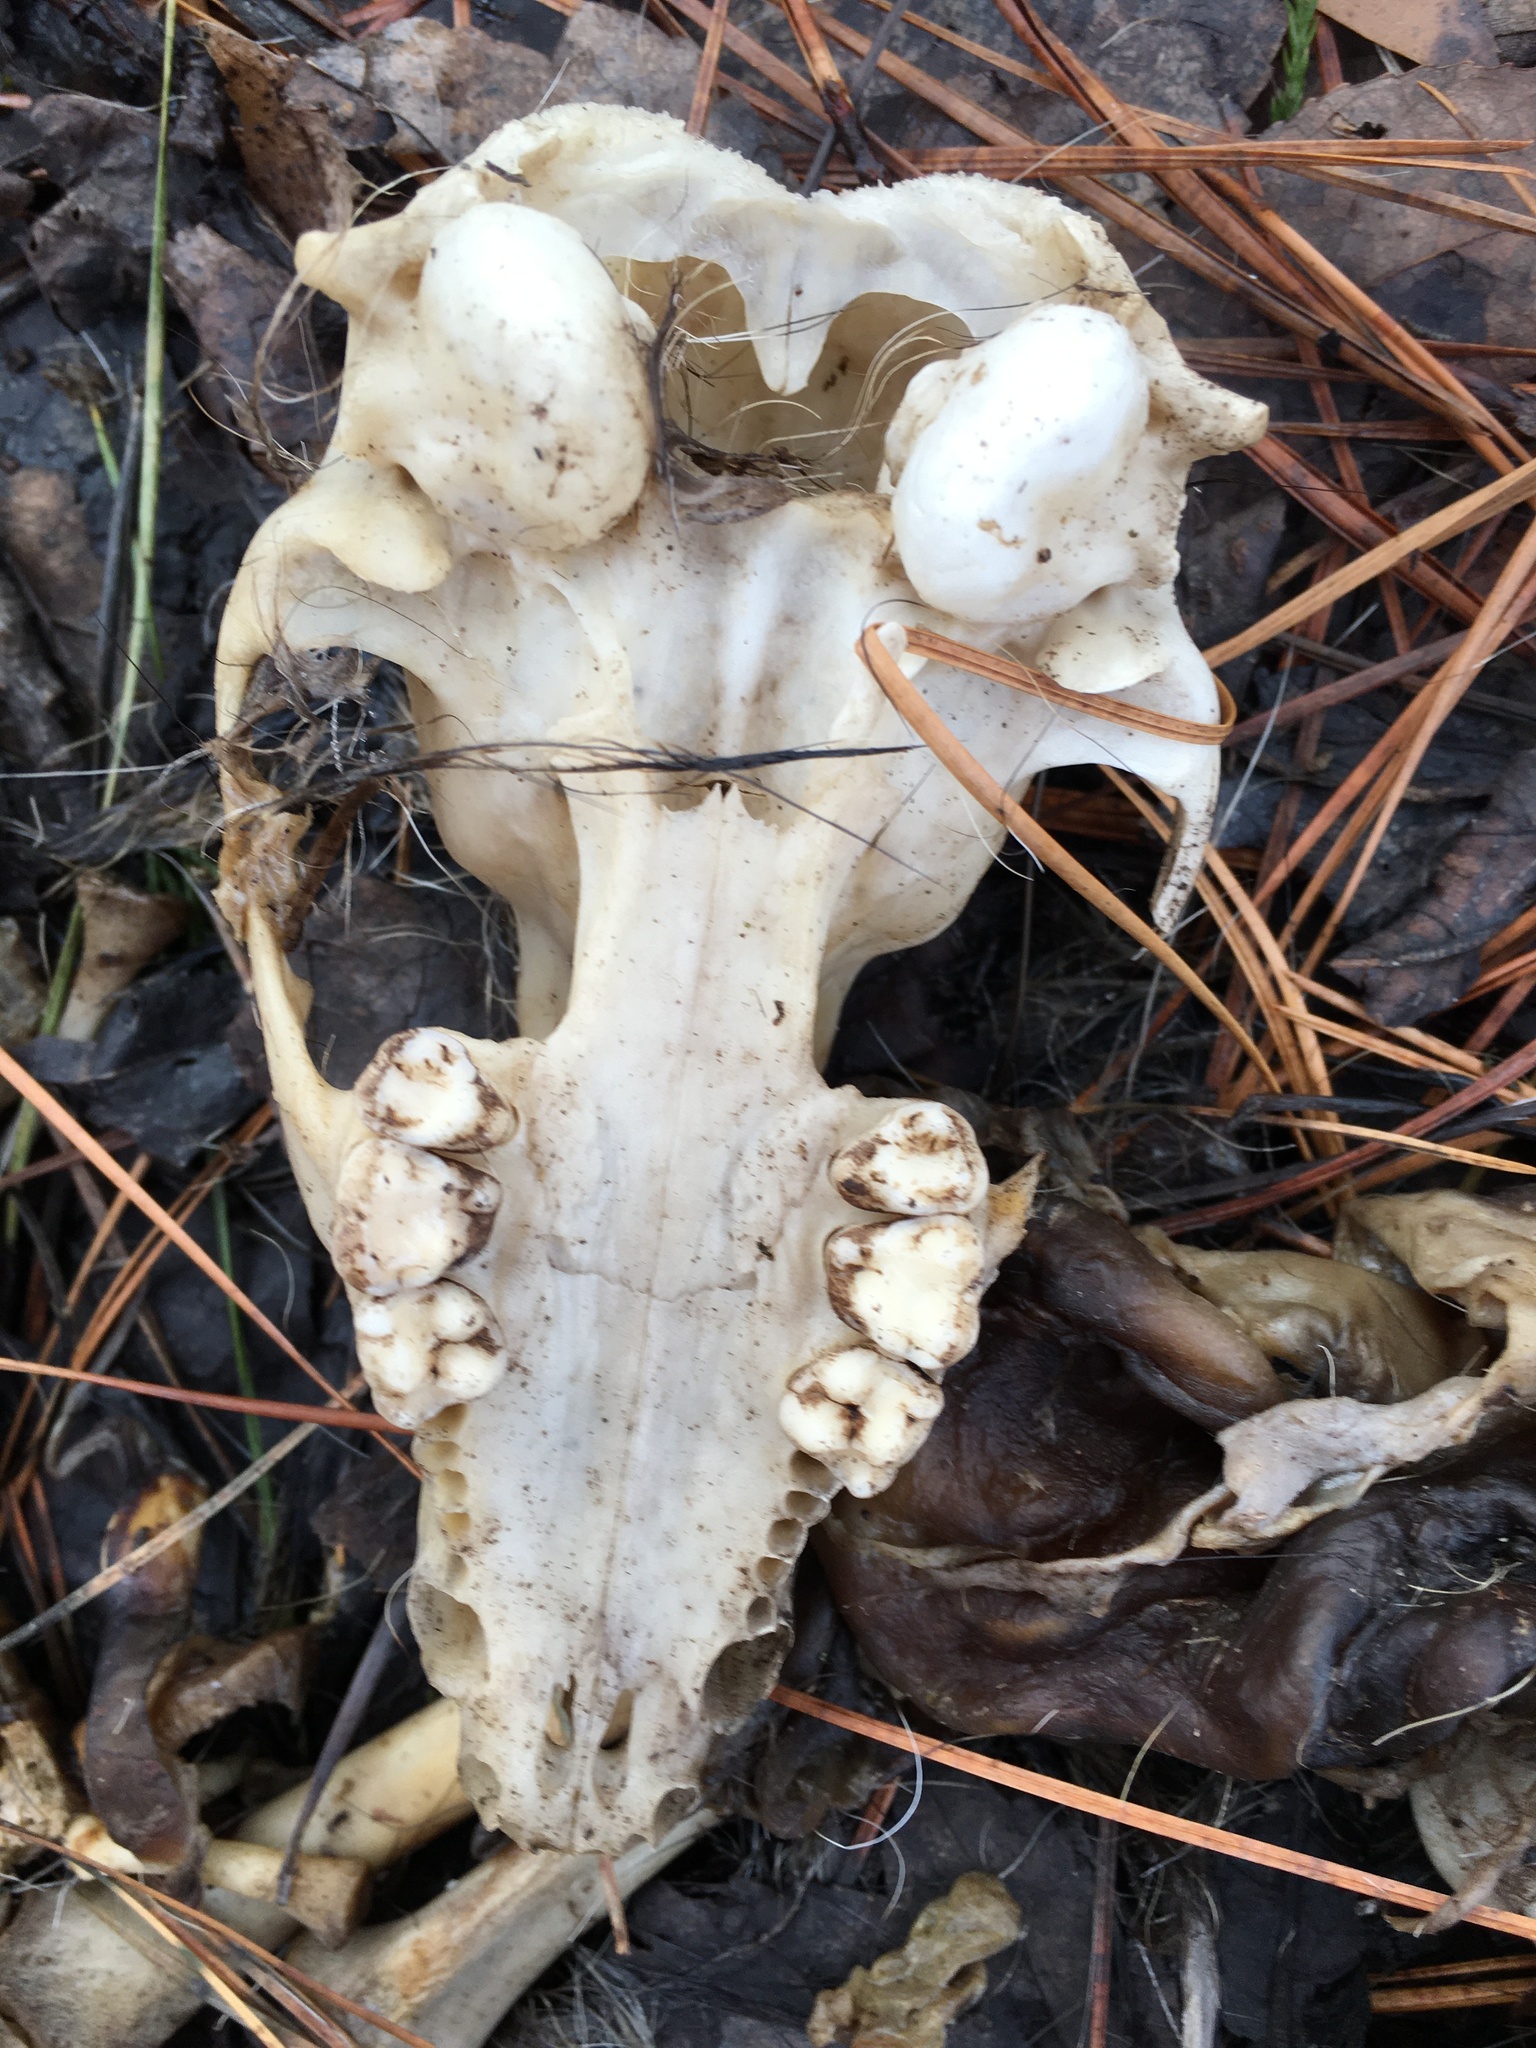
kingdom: Animalia
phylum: Chordata
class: Mammalia
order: Carnivora
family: Procyonidae
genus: Procyon
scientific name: Procyon lotor
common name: Raccoon
